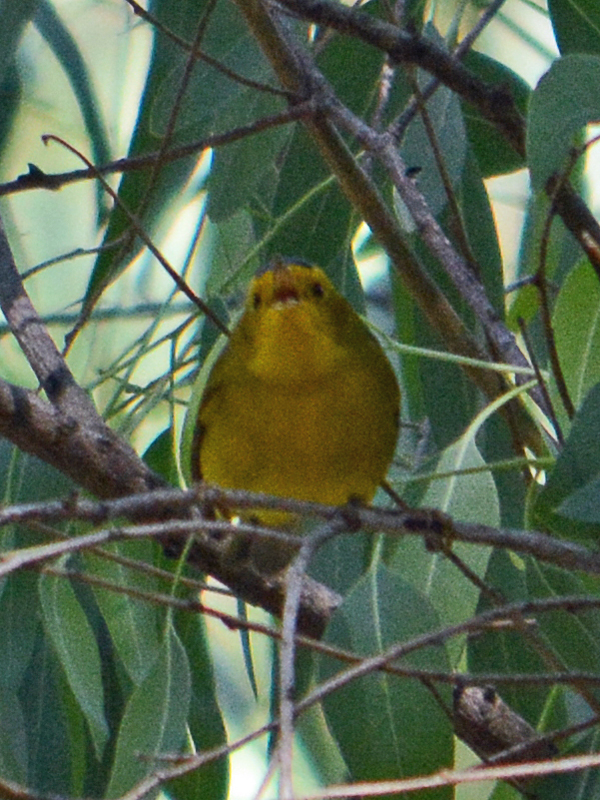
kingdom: Animalia
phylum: Chordata
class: Aves
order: Passeriformes
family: Parulidae
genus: Cardellina
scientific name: Cardellina pusilla
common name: Wilson's warbler
